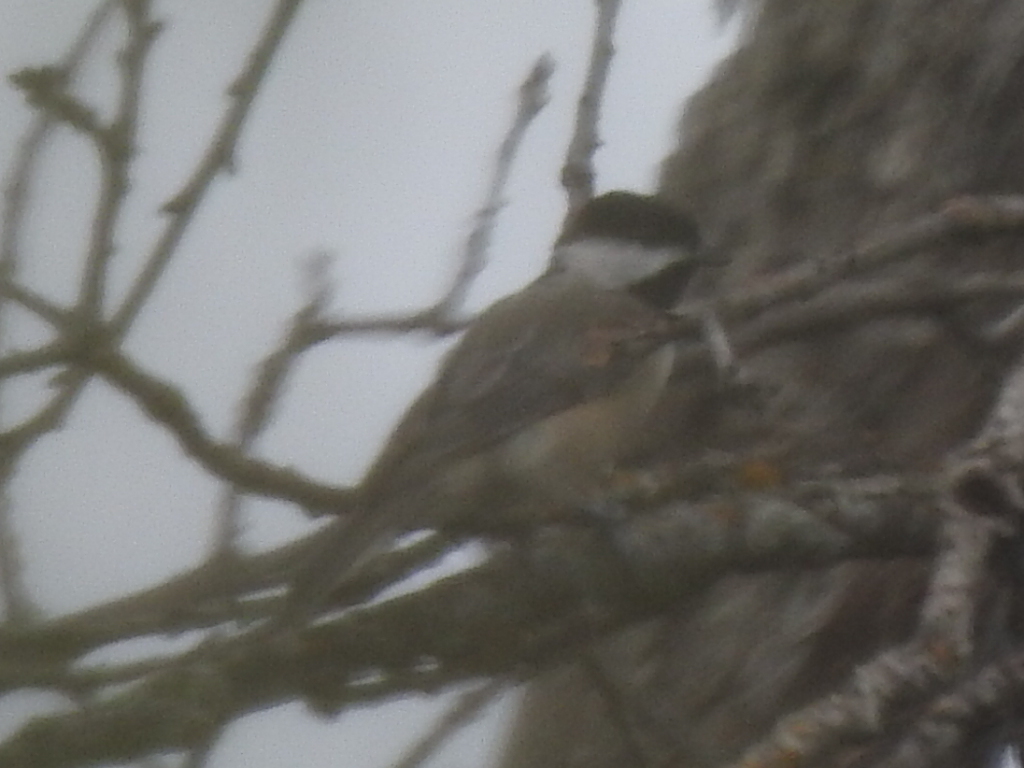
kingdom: Animalia
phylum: Chordata
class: Aves
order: Passeriformes
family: Paridae
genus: Poecile
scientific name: Poecile carolinensis
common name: Carolina chickadee
